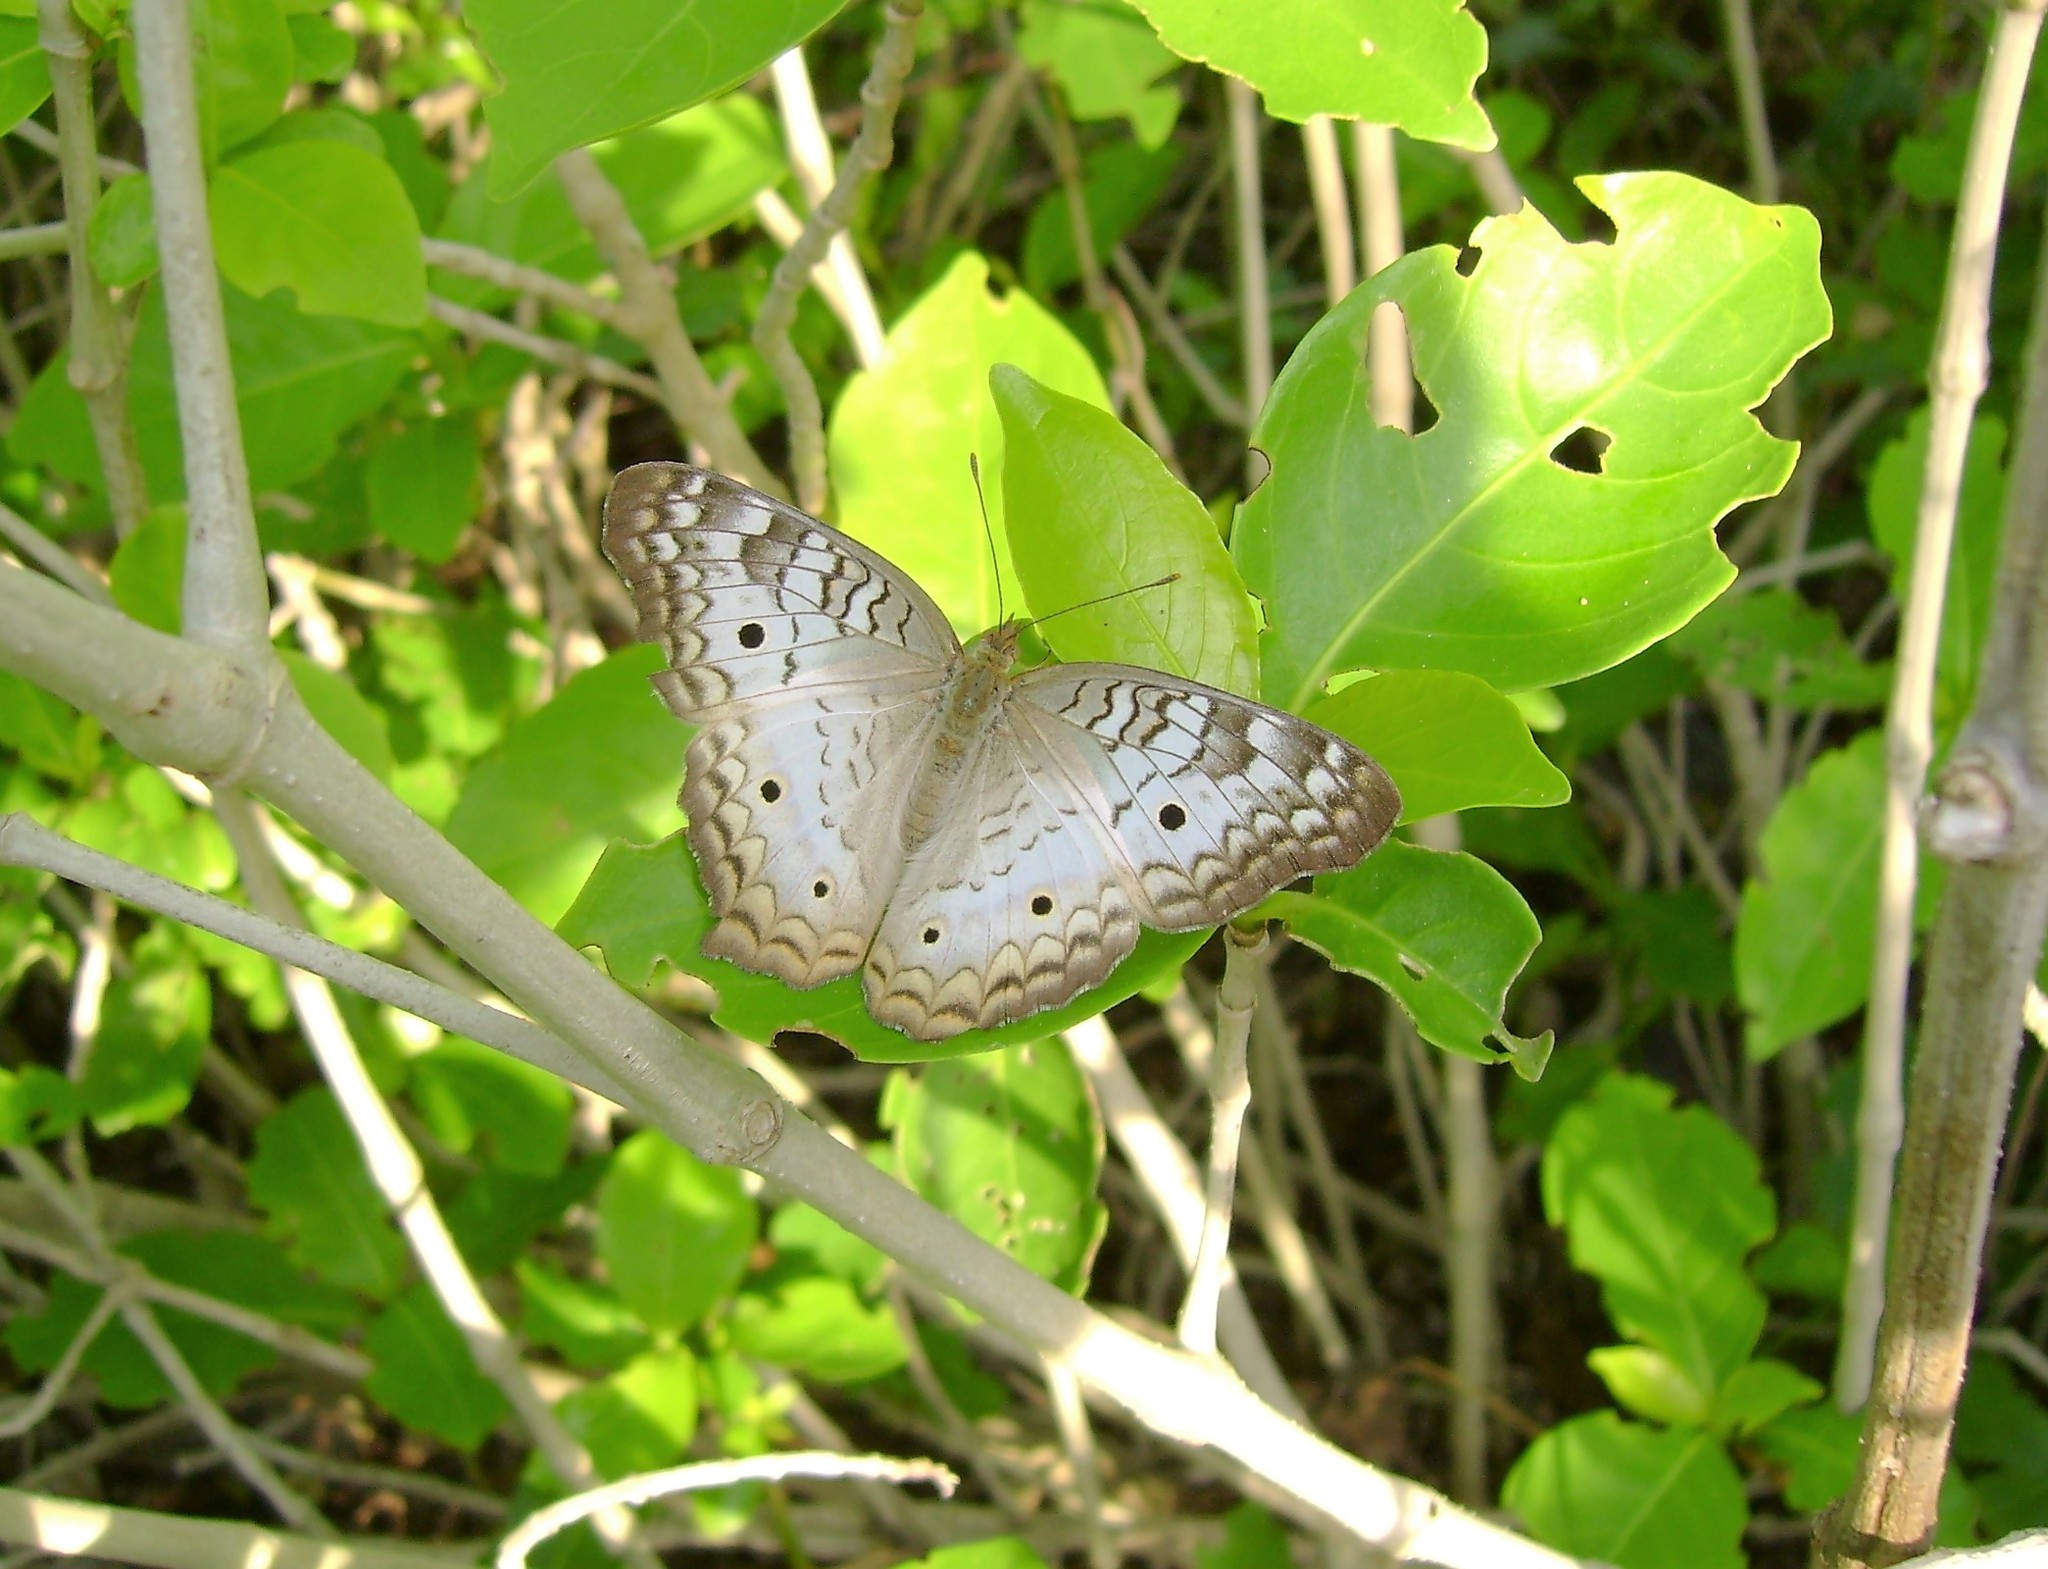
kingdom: Animalia
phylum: Arthropoda
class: Insecta
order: Lepidoptera
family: Nymphalidae
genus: Anartia
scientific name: Anartia jatrophae
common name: White peacock
